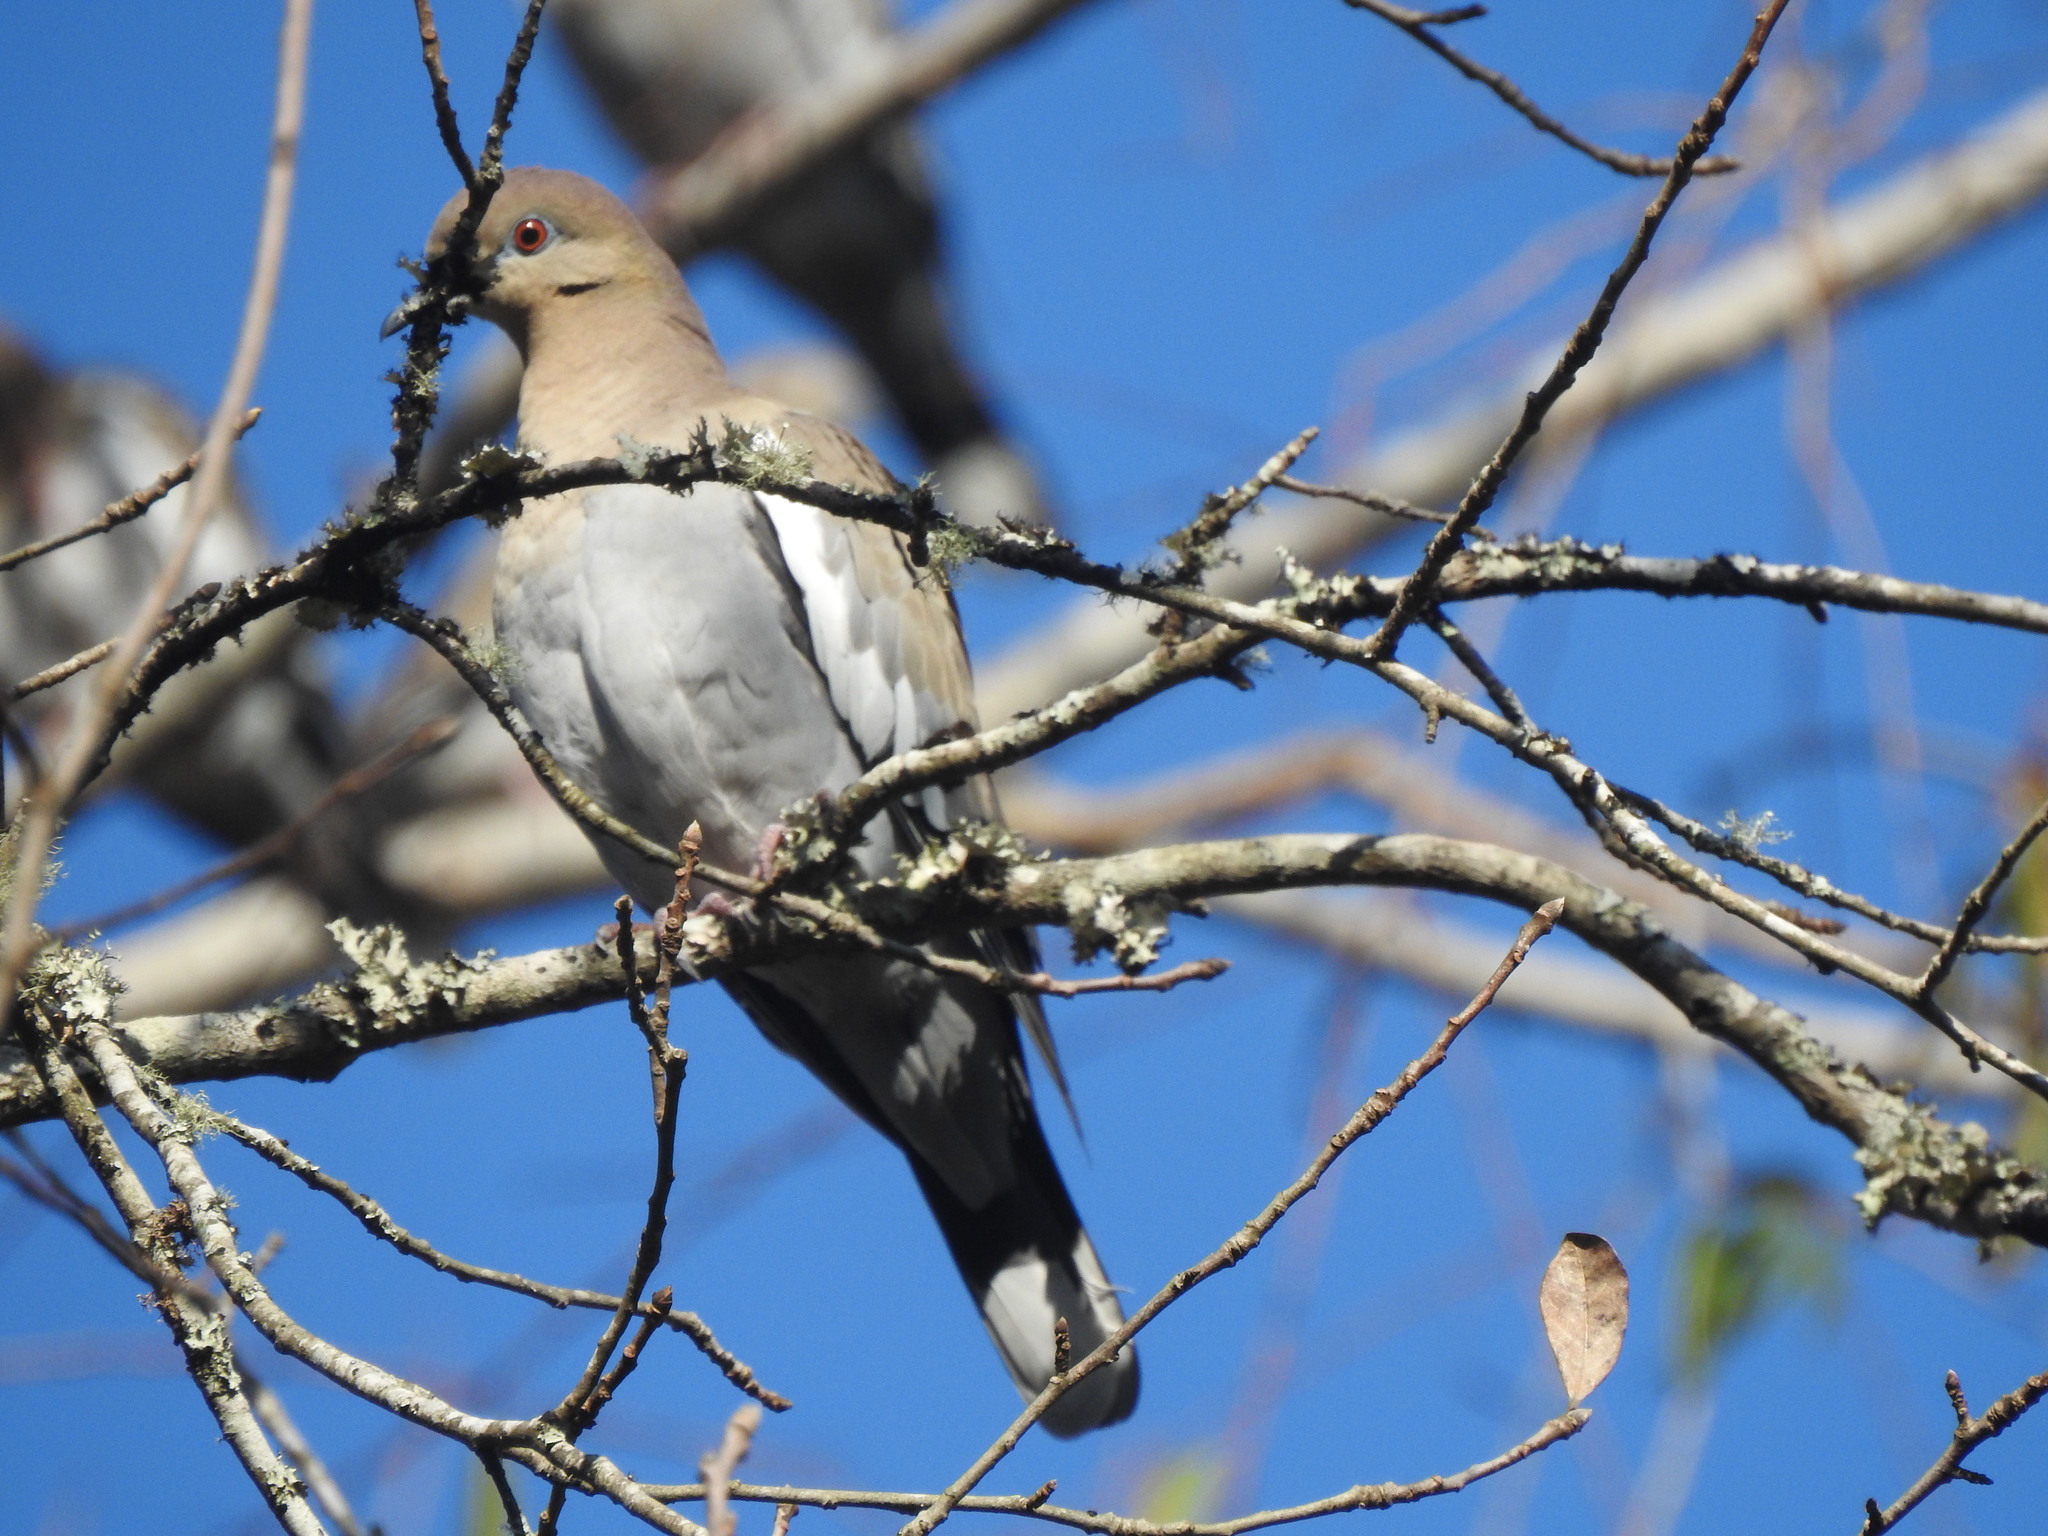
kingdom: Animalia
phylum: Chordata
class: Aves
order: Columbiformes
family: Columbidae
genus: Zenaida
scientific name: Zenaida asiatica
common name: White-winged dove
